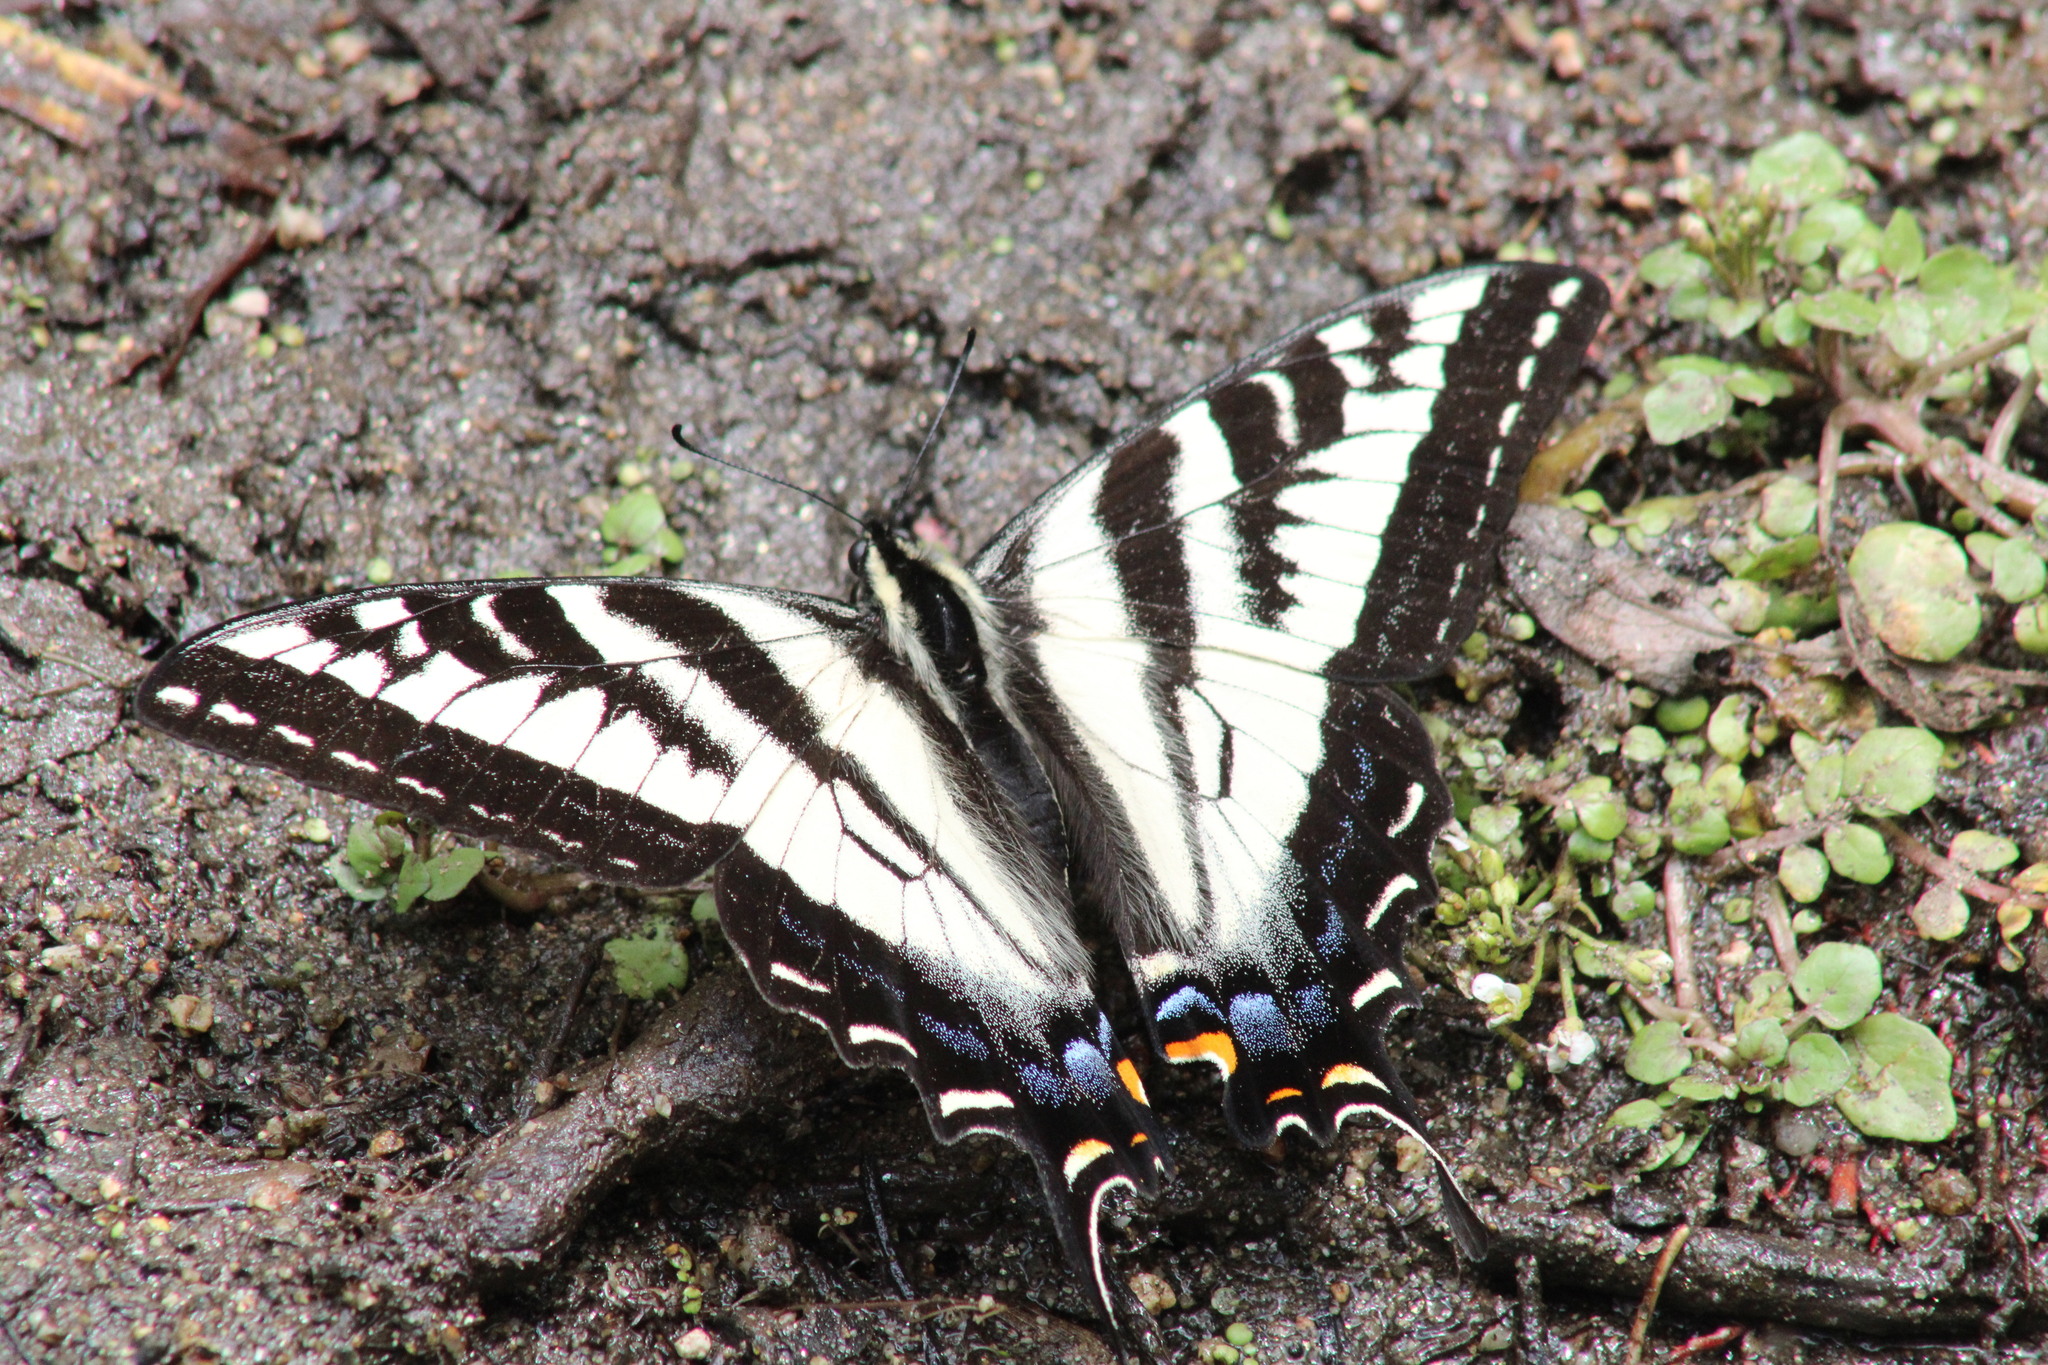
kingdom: Animalia
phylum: Arthropoda
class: Insecta
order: Lepidoptera
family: Papilionidae
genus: Papilio
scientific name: Papilio eurymedon
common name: Pale tiger swallowtail
